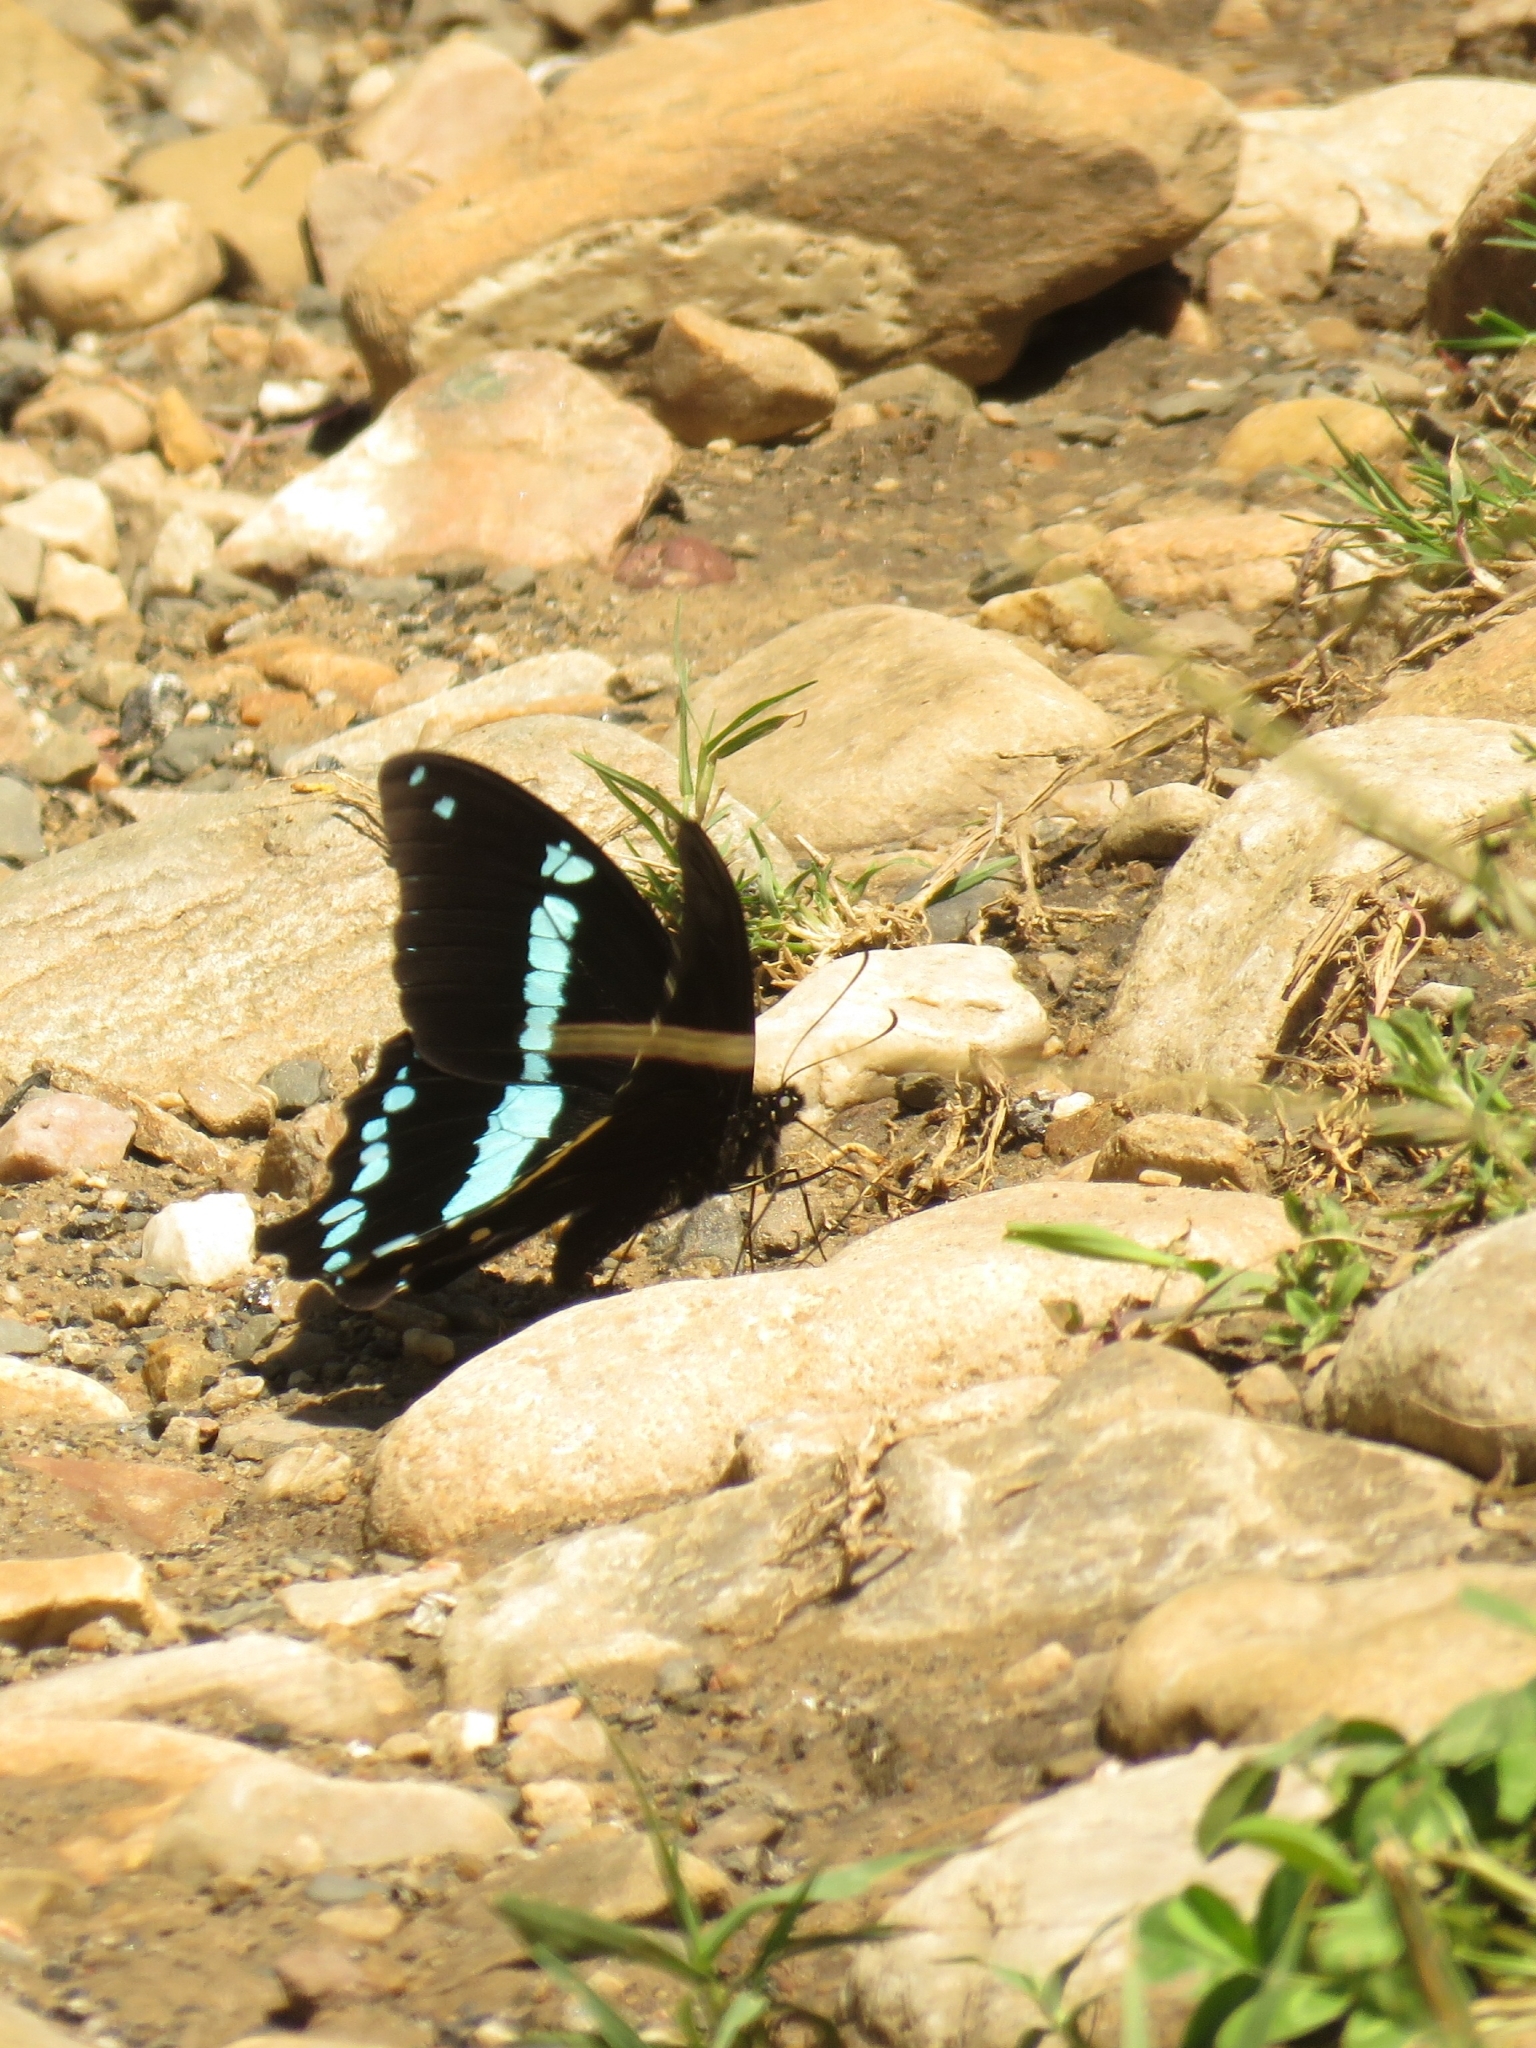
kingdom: Animalia
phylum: Arthropoda
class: Insecta
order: Lepidoptera
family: Papilionidae
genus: Papilio
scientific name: Papilio nireus
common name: Greenbanded swallowtail
